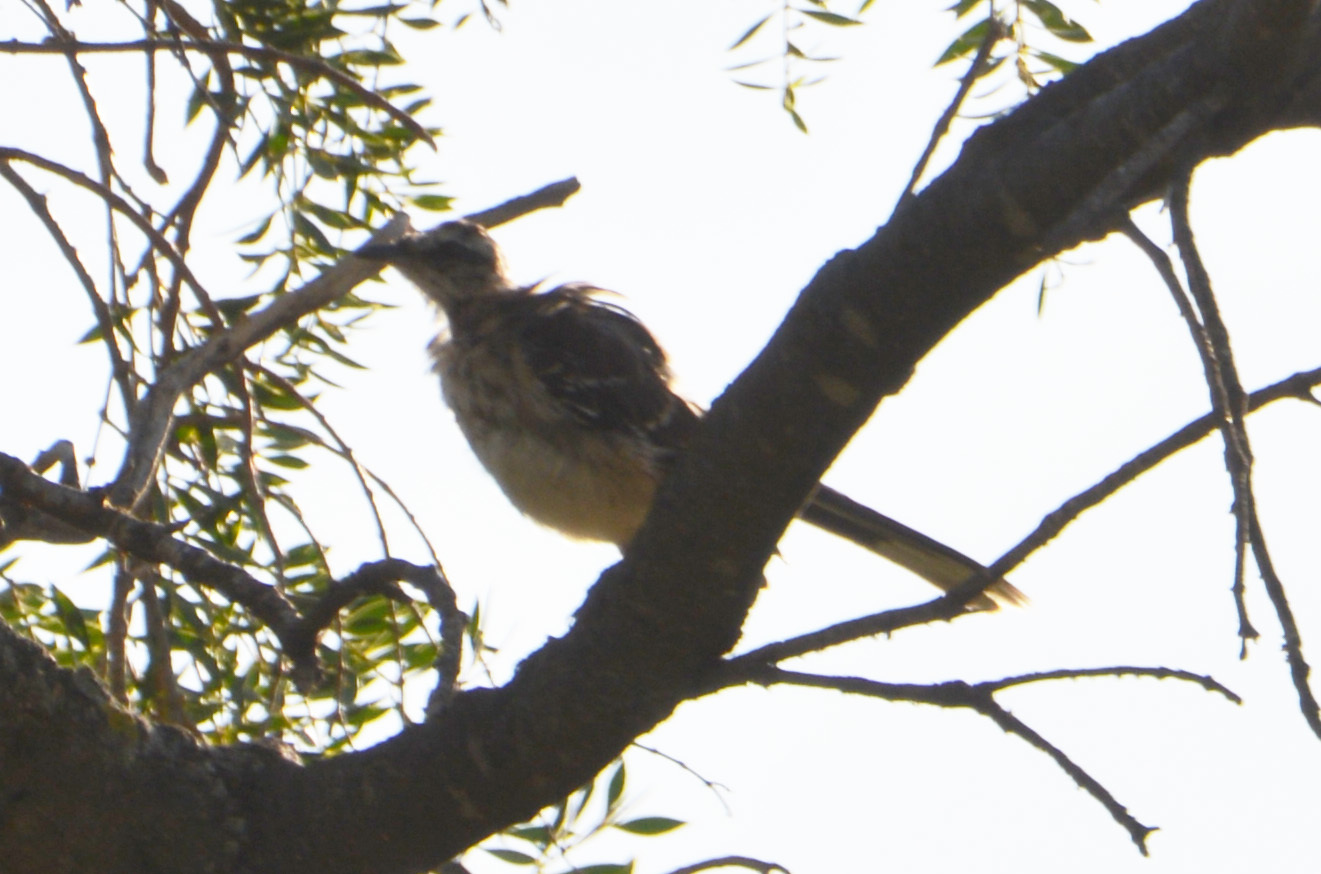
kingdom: Animalia
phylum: Chordata
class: Aves
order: Passeriformes
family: Mimidae
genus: Mimus
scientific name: Mimus saturninus
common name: Chalk-browed mockingbird
